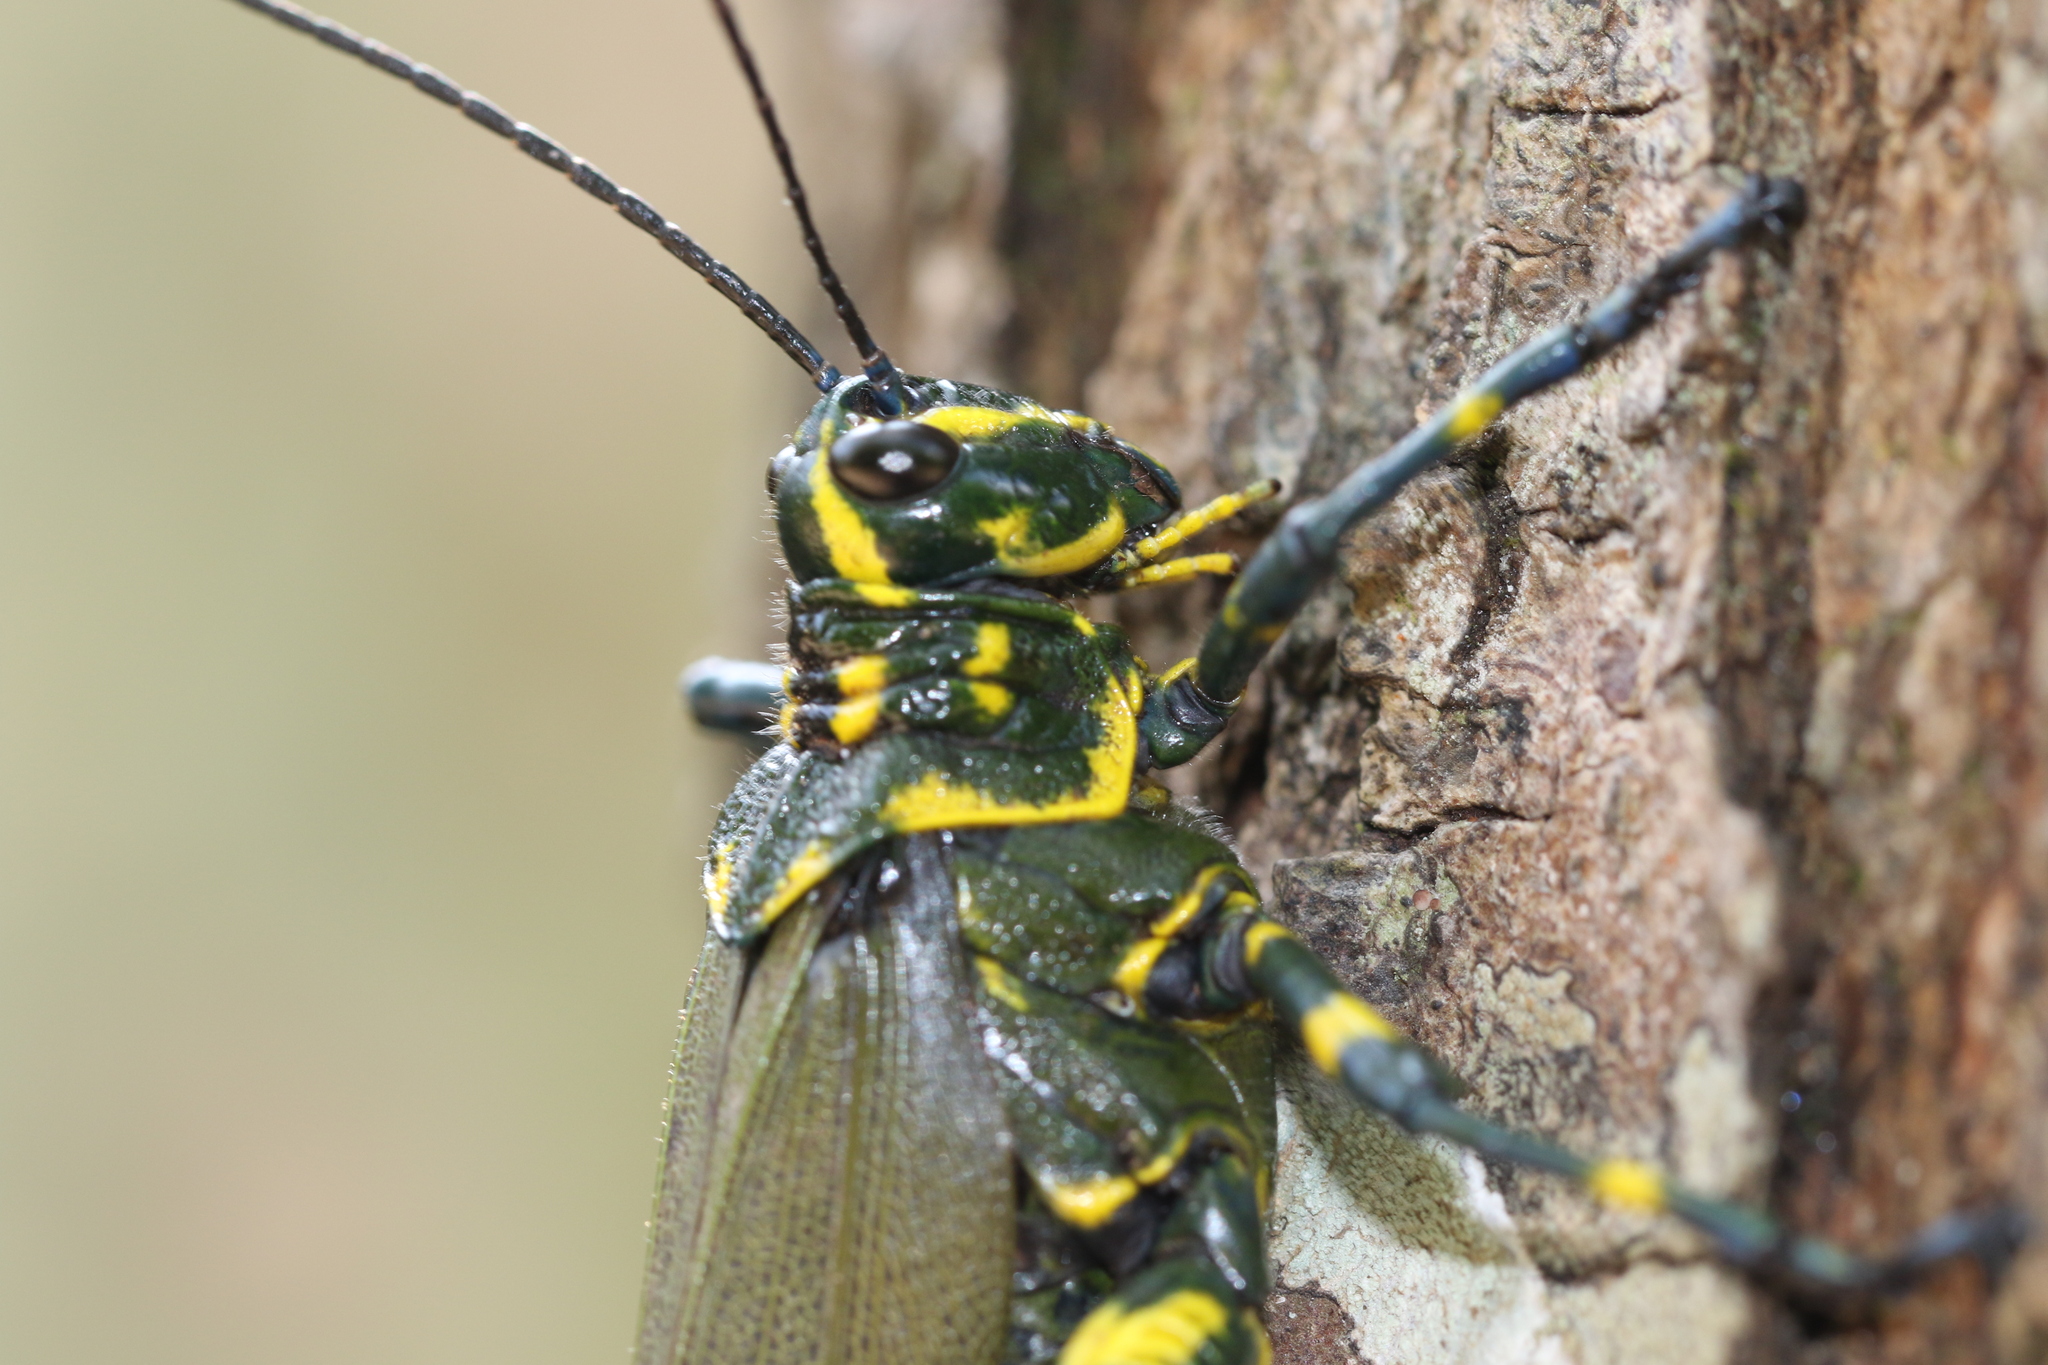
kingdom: Animalia
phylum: Arthropoda
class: Insecta
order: Orthoptera
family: Romaleidae
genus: Chromacris
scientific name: Chromacris speciosa
